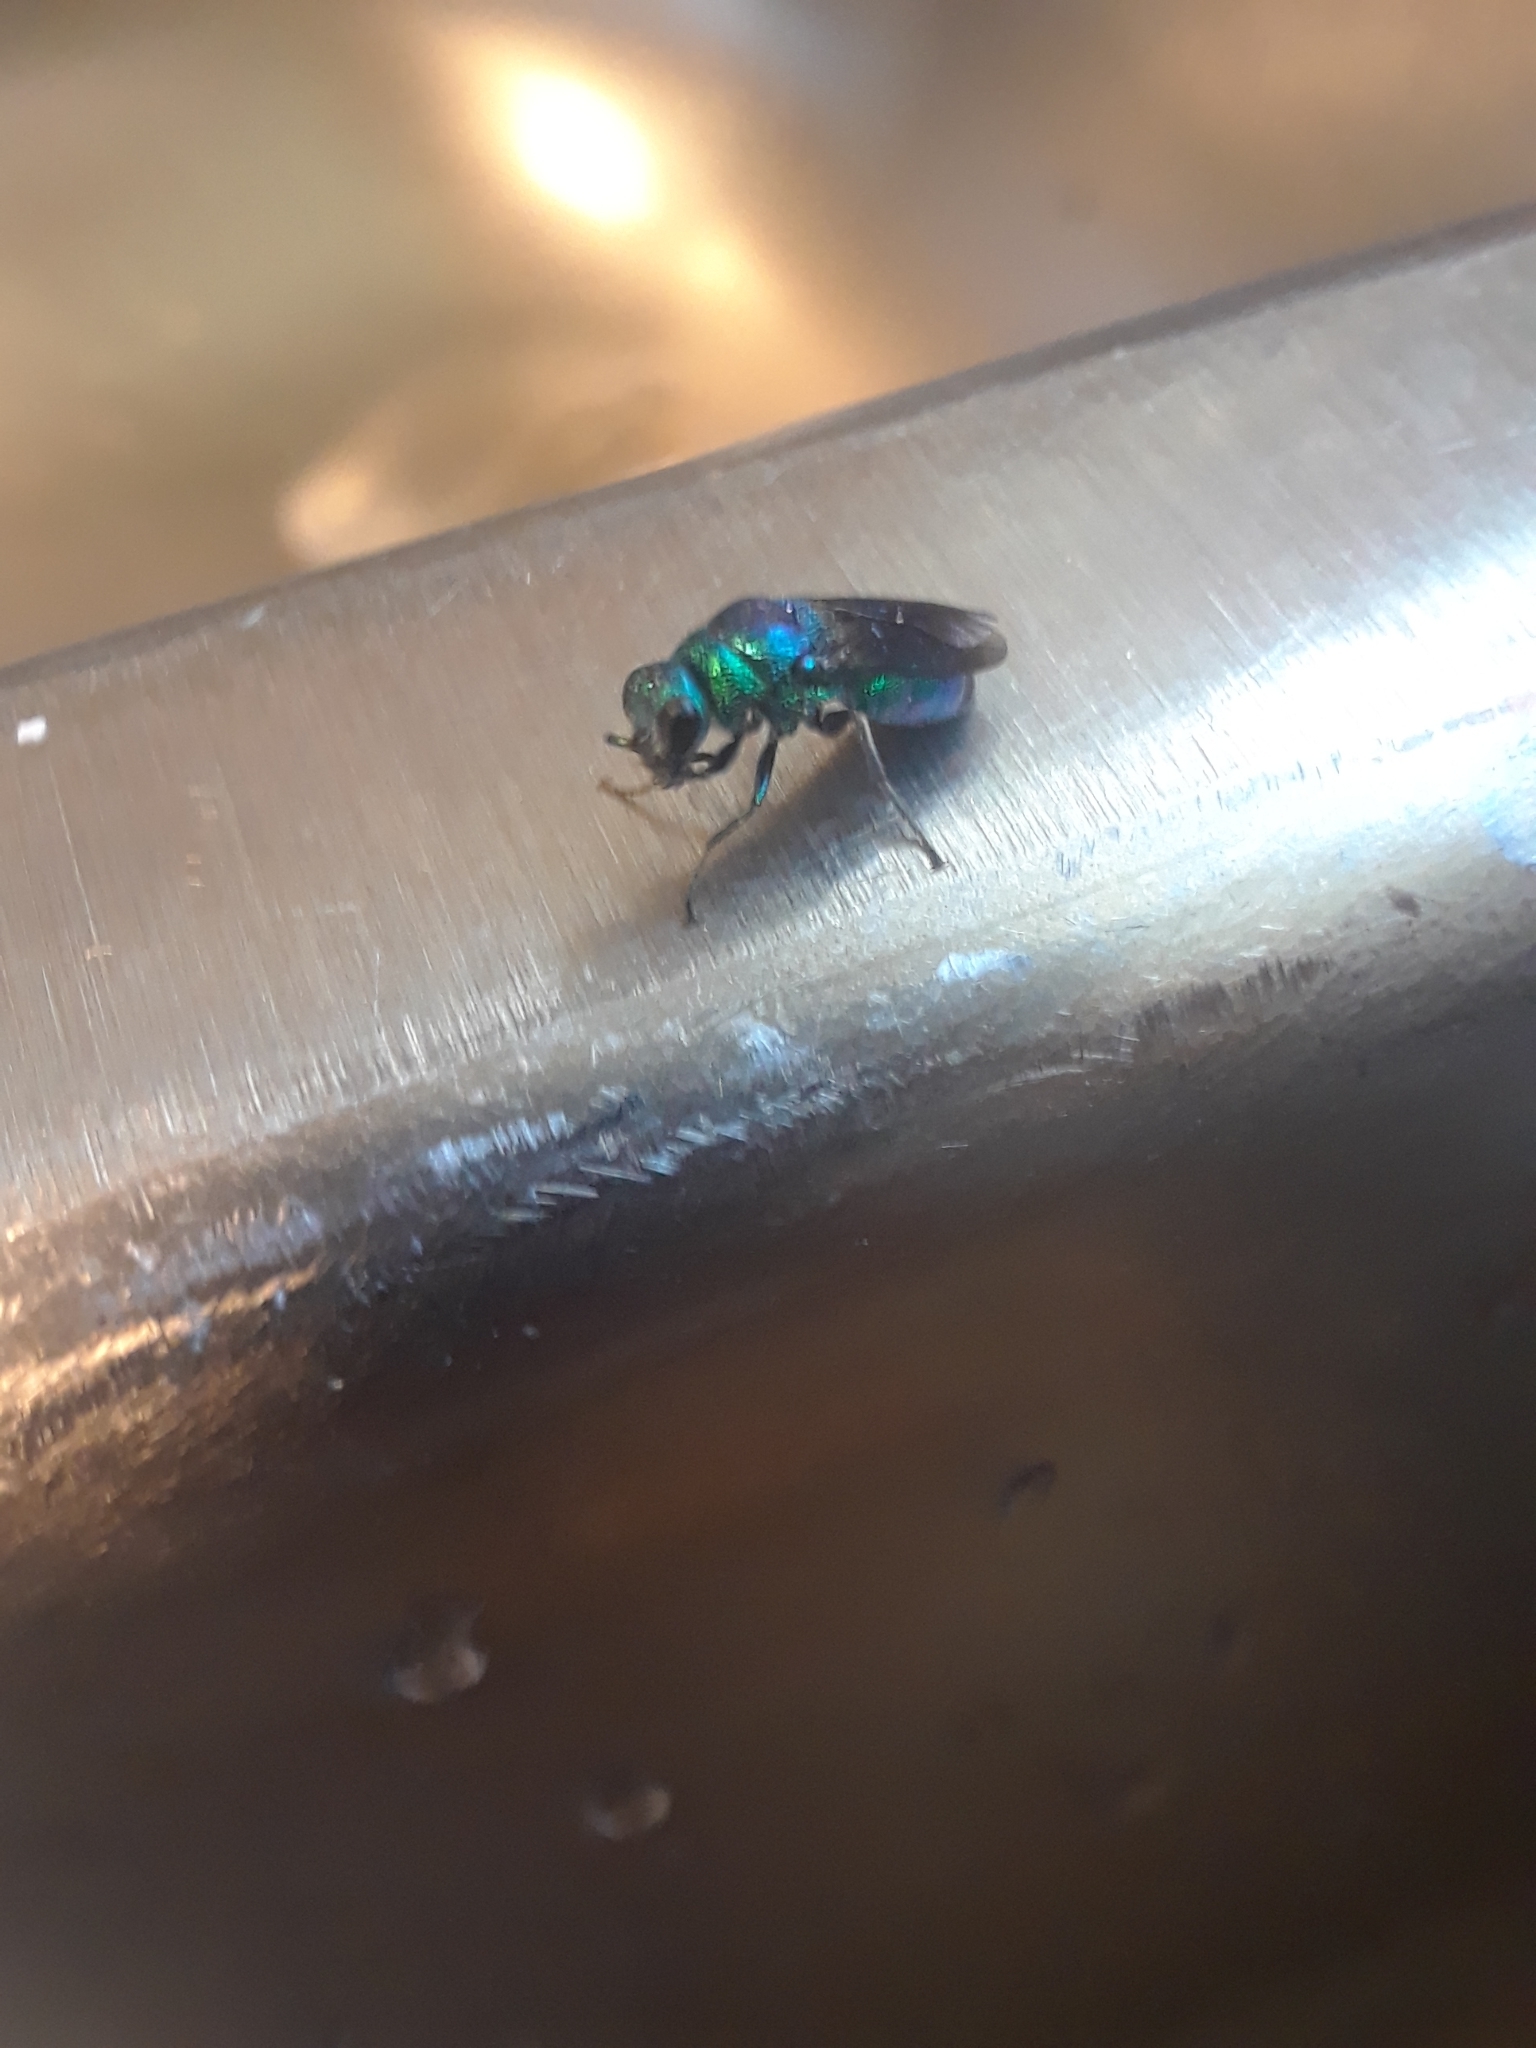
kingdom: Animalia
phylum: Arthropoda
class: Insecta
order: Hymenoptera
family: Chrysididae
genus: Chrysis
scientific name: Chrysis angolensis
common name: Cuckoo wasp
